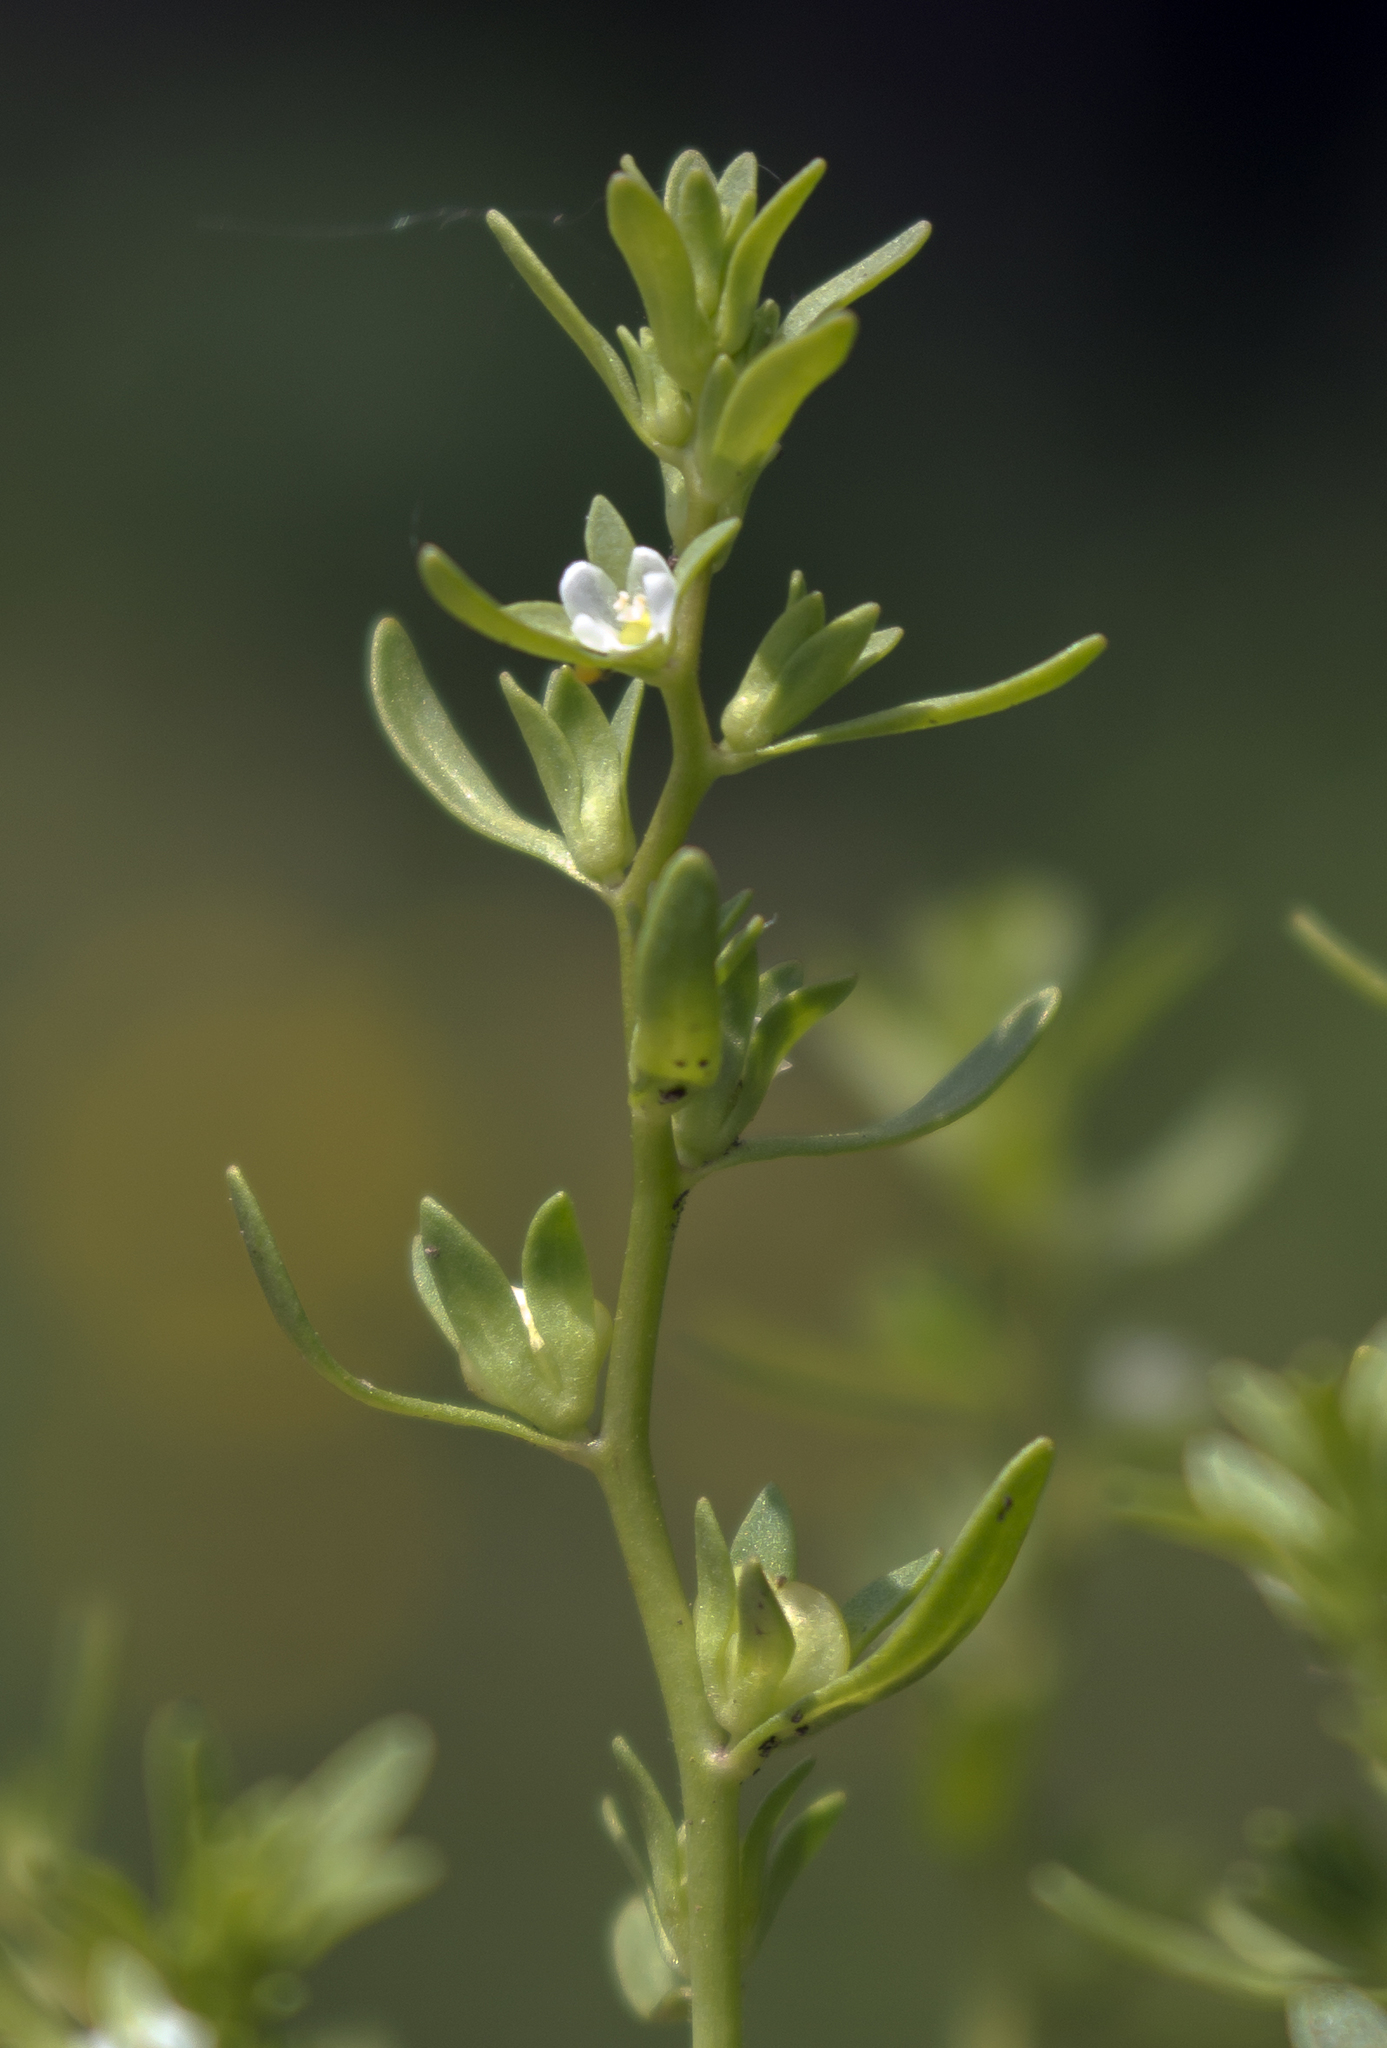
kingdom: Plantae
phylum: Tracheophyta
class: Magnoliopsida
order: Lamiales
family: Plantaginaceae
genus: Veronica
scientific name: Veronica peregrina
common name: Neckweed
